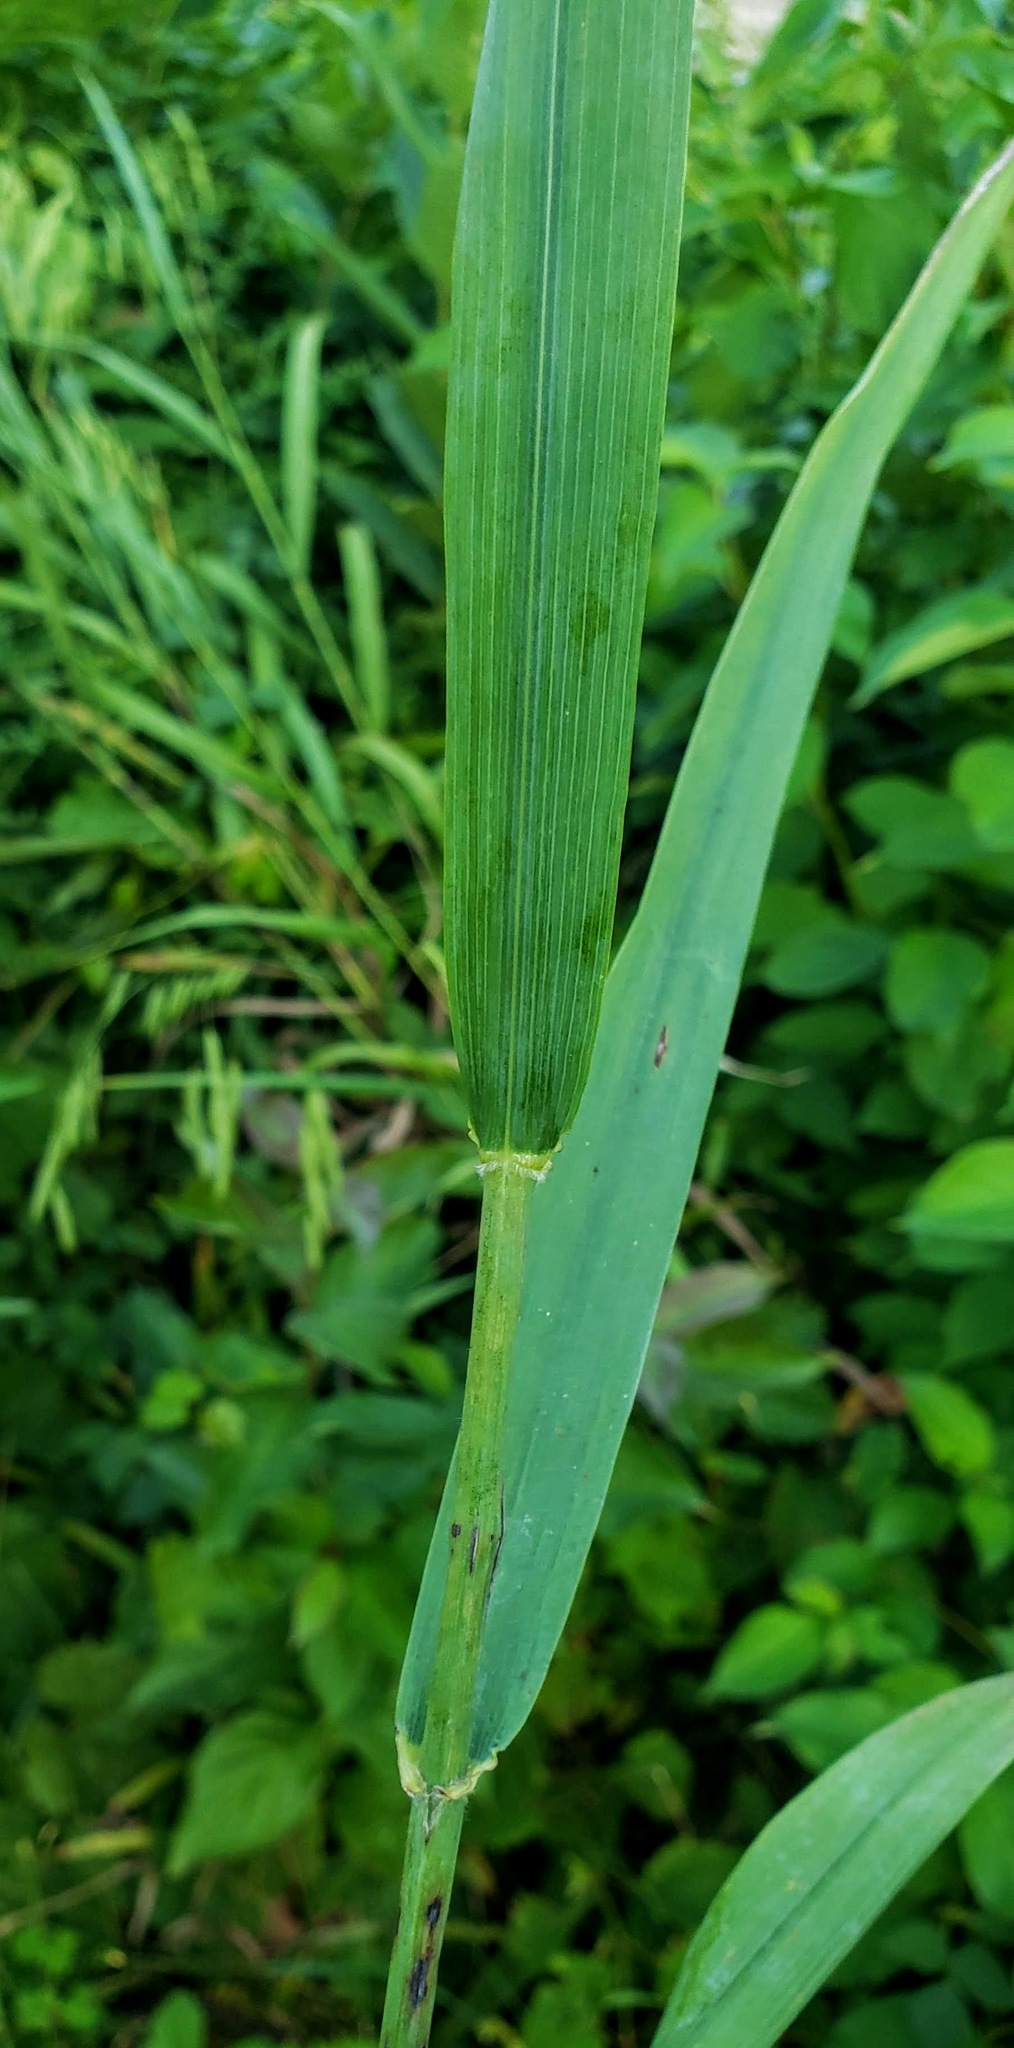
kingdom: Plantae
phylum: Tracheophyta
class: Liliopsida
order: Poales
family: Poaceae
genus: Bromus
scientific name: Bromus latiglumis
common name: Broad-glumed brome
